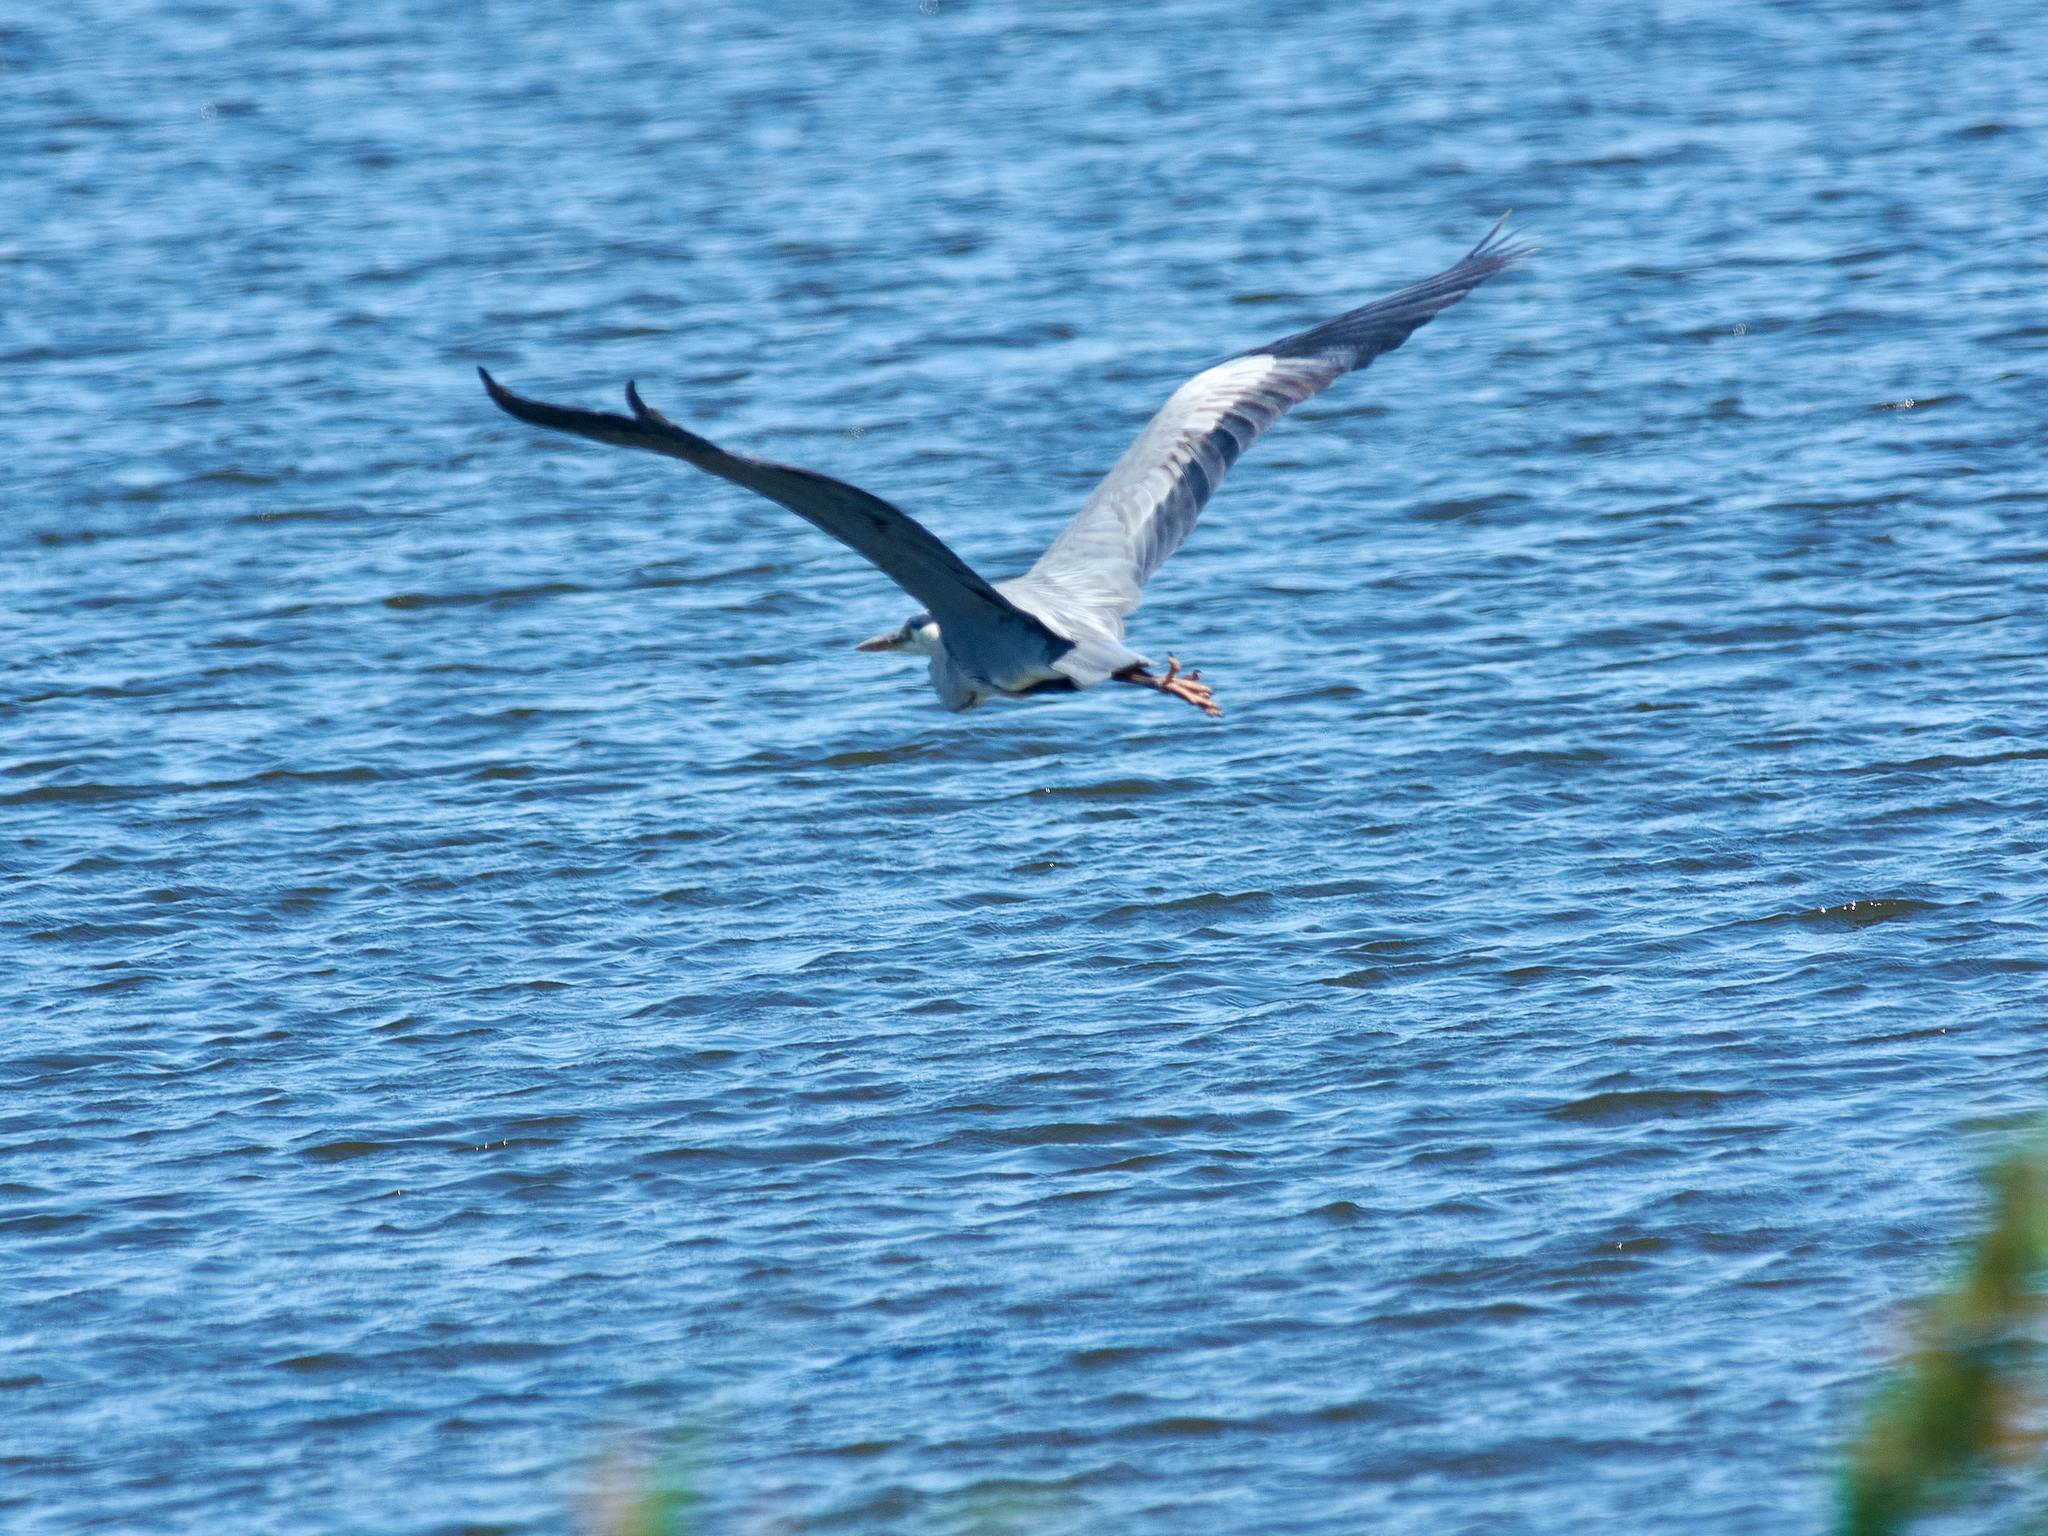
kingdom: Animalia
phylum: Chordata
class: Aves
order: Pelecaniformes
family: Ardeidae
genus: Ardea
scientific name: Ardea cinerea
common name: Grey heron
